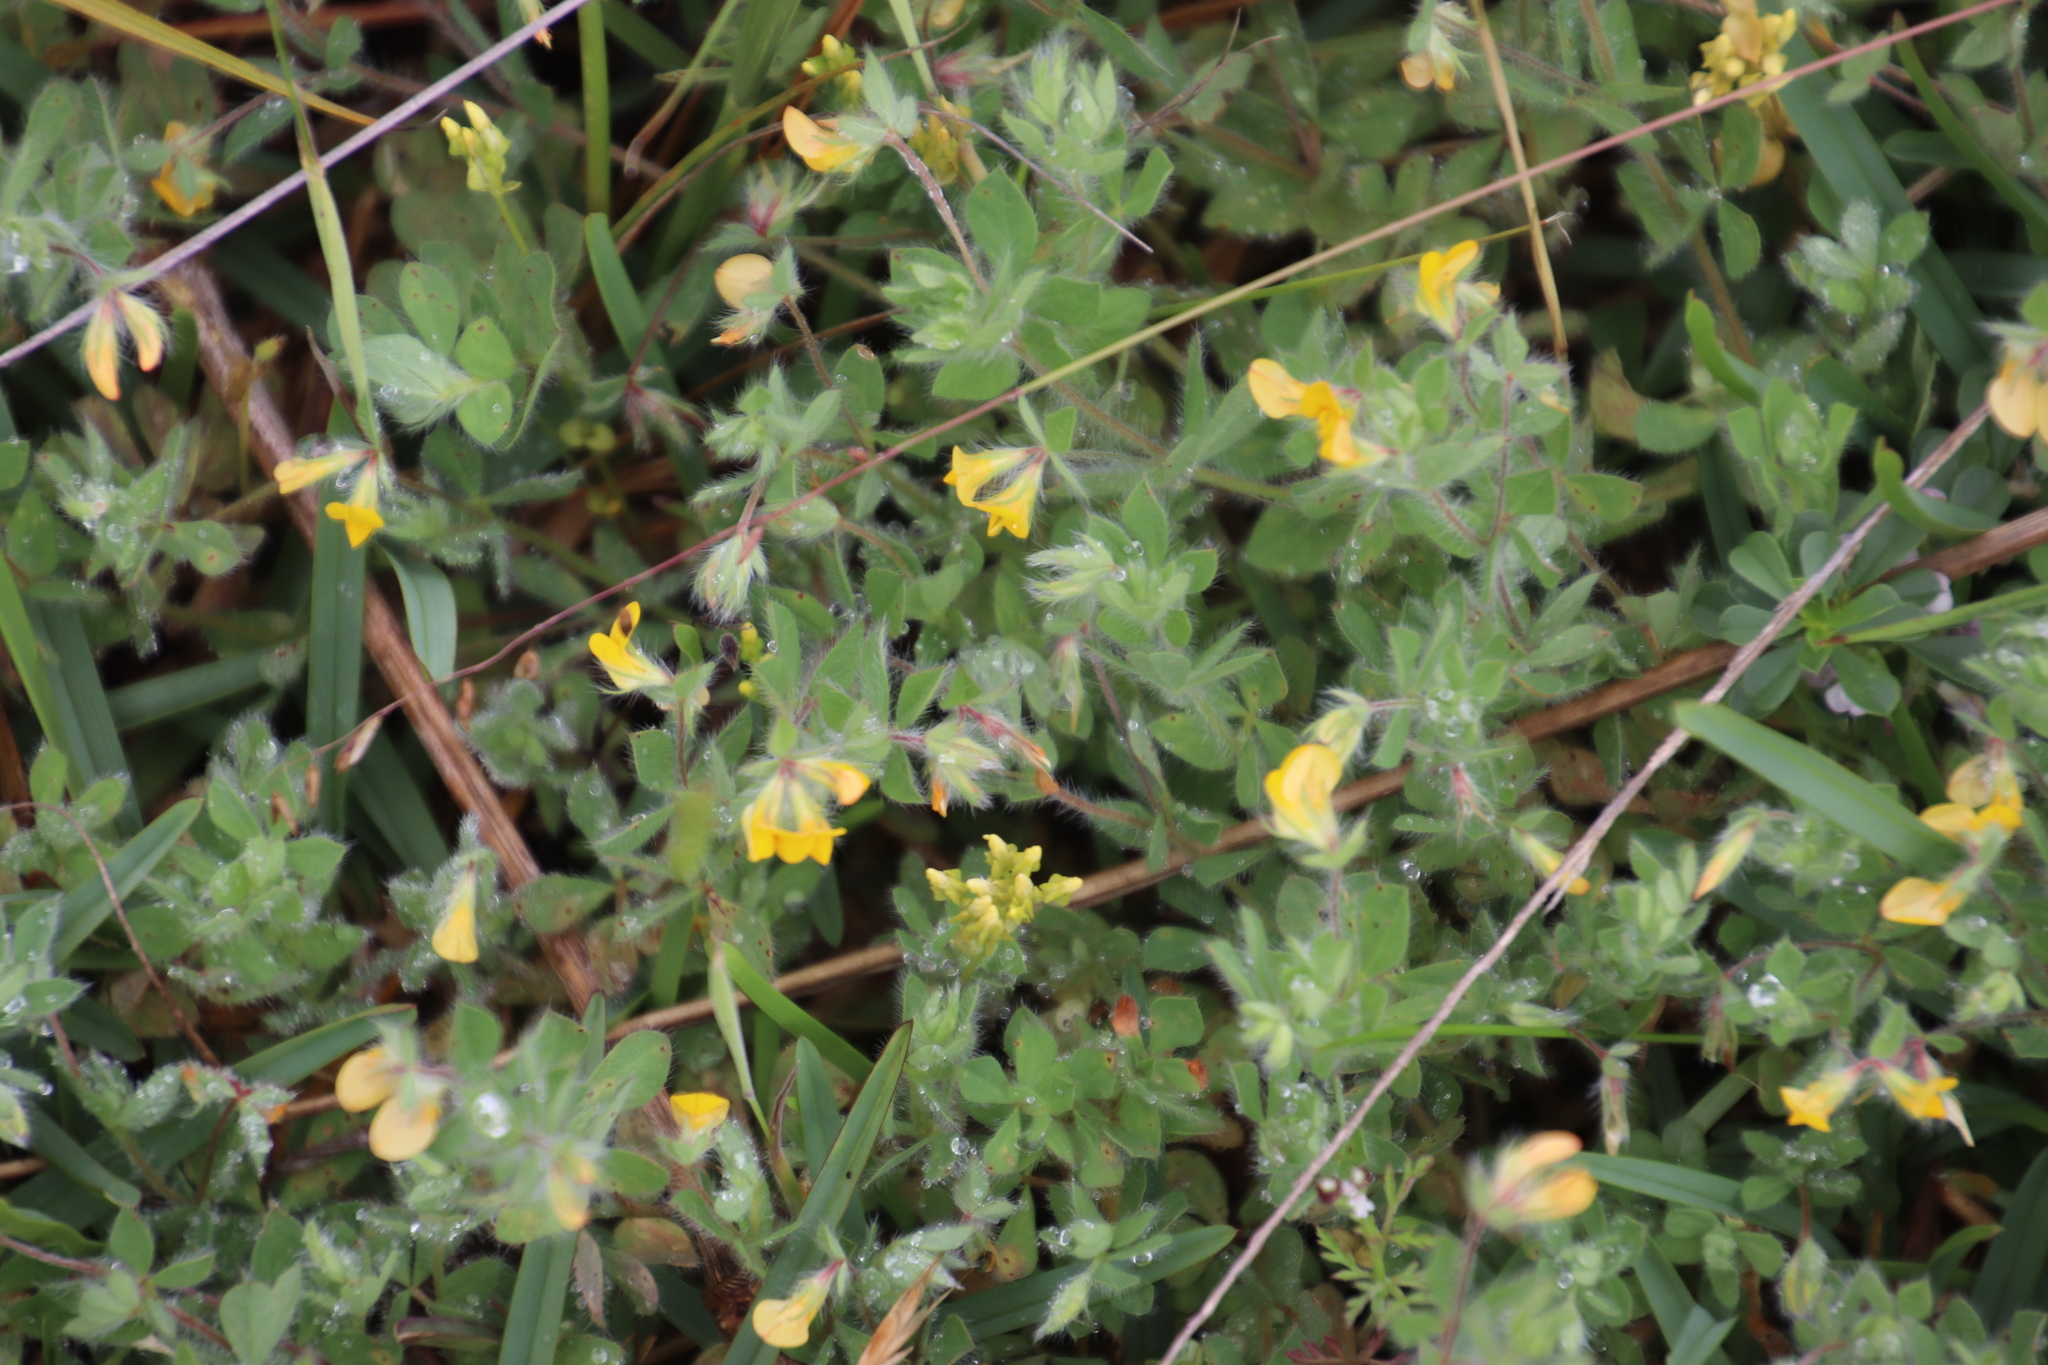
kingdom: Plantae
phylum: Tracheophyta
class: Magnoliopsida
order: Fabales
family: Fabaceae
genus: Lotus
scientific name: Lotus subbiflorus
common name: Hairy bird's-foot trefoil
